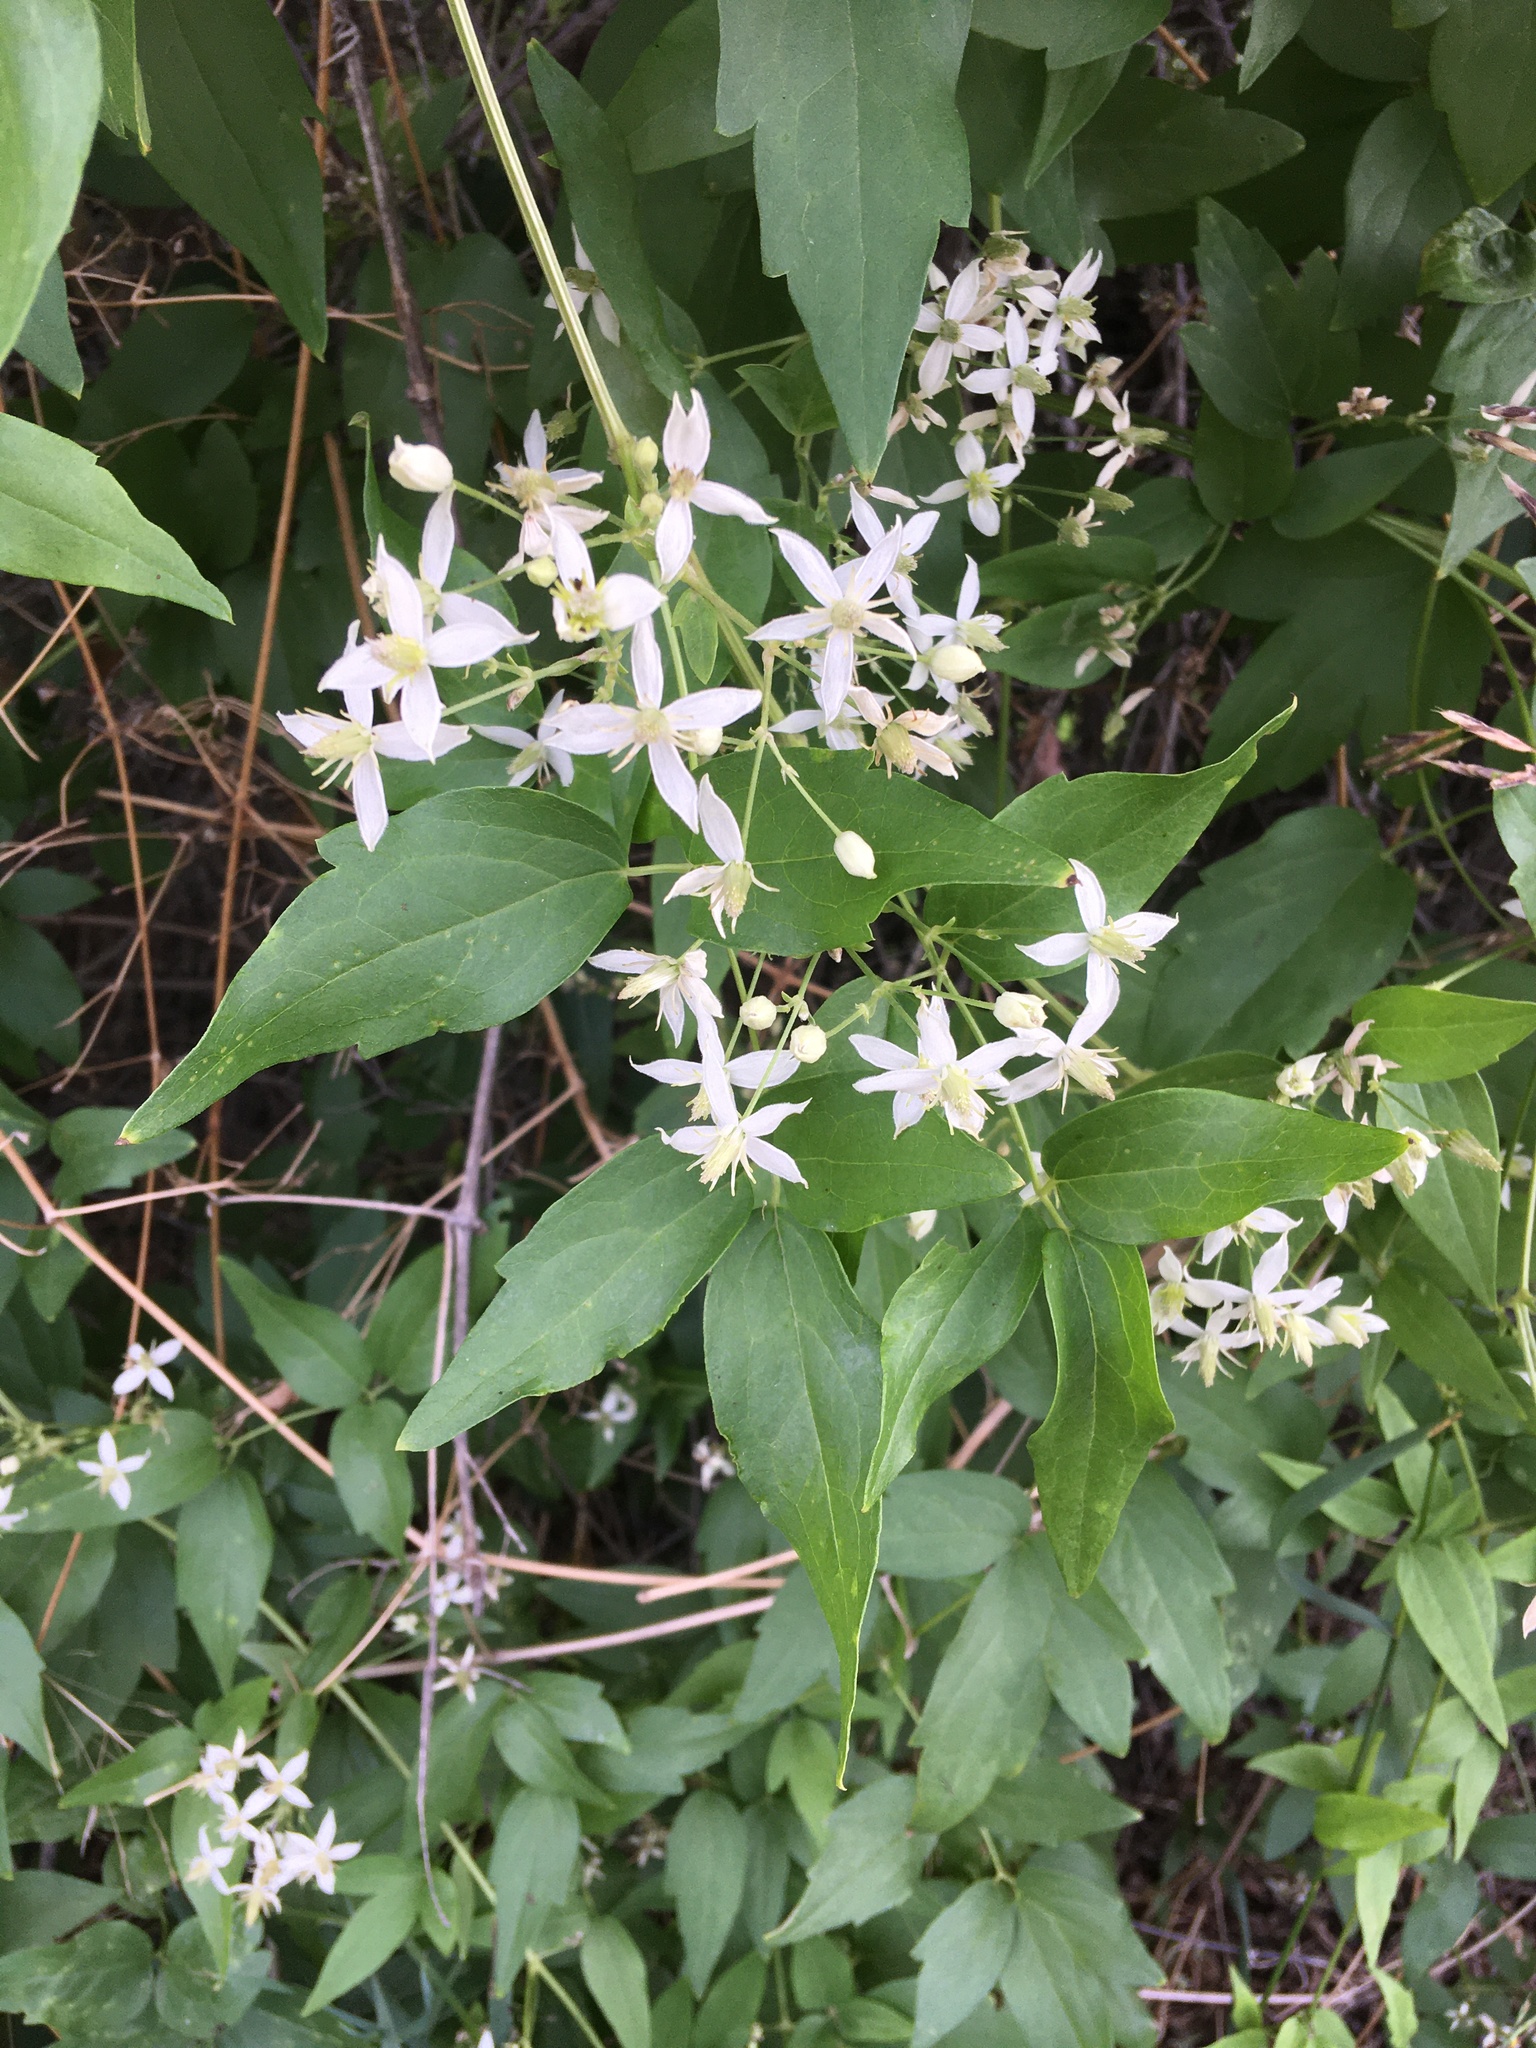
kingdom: Plantae
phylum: Tracheophyta
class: Magnoliopsida
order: Ranunculales
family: Ranunculaceae
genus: Clematis
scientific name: Clematis ligusticifolia
